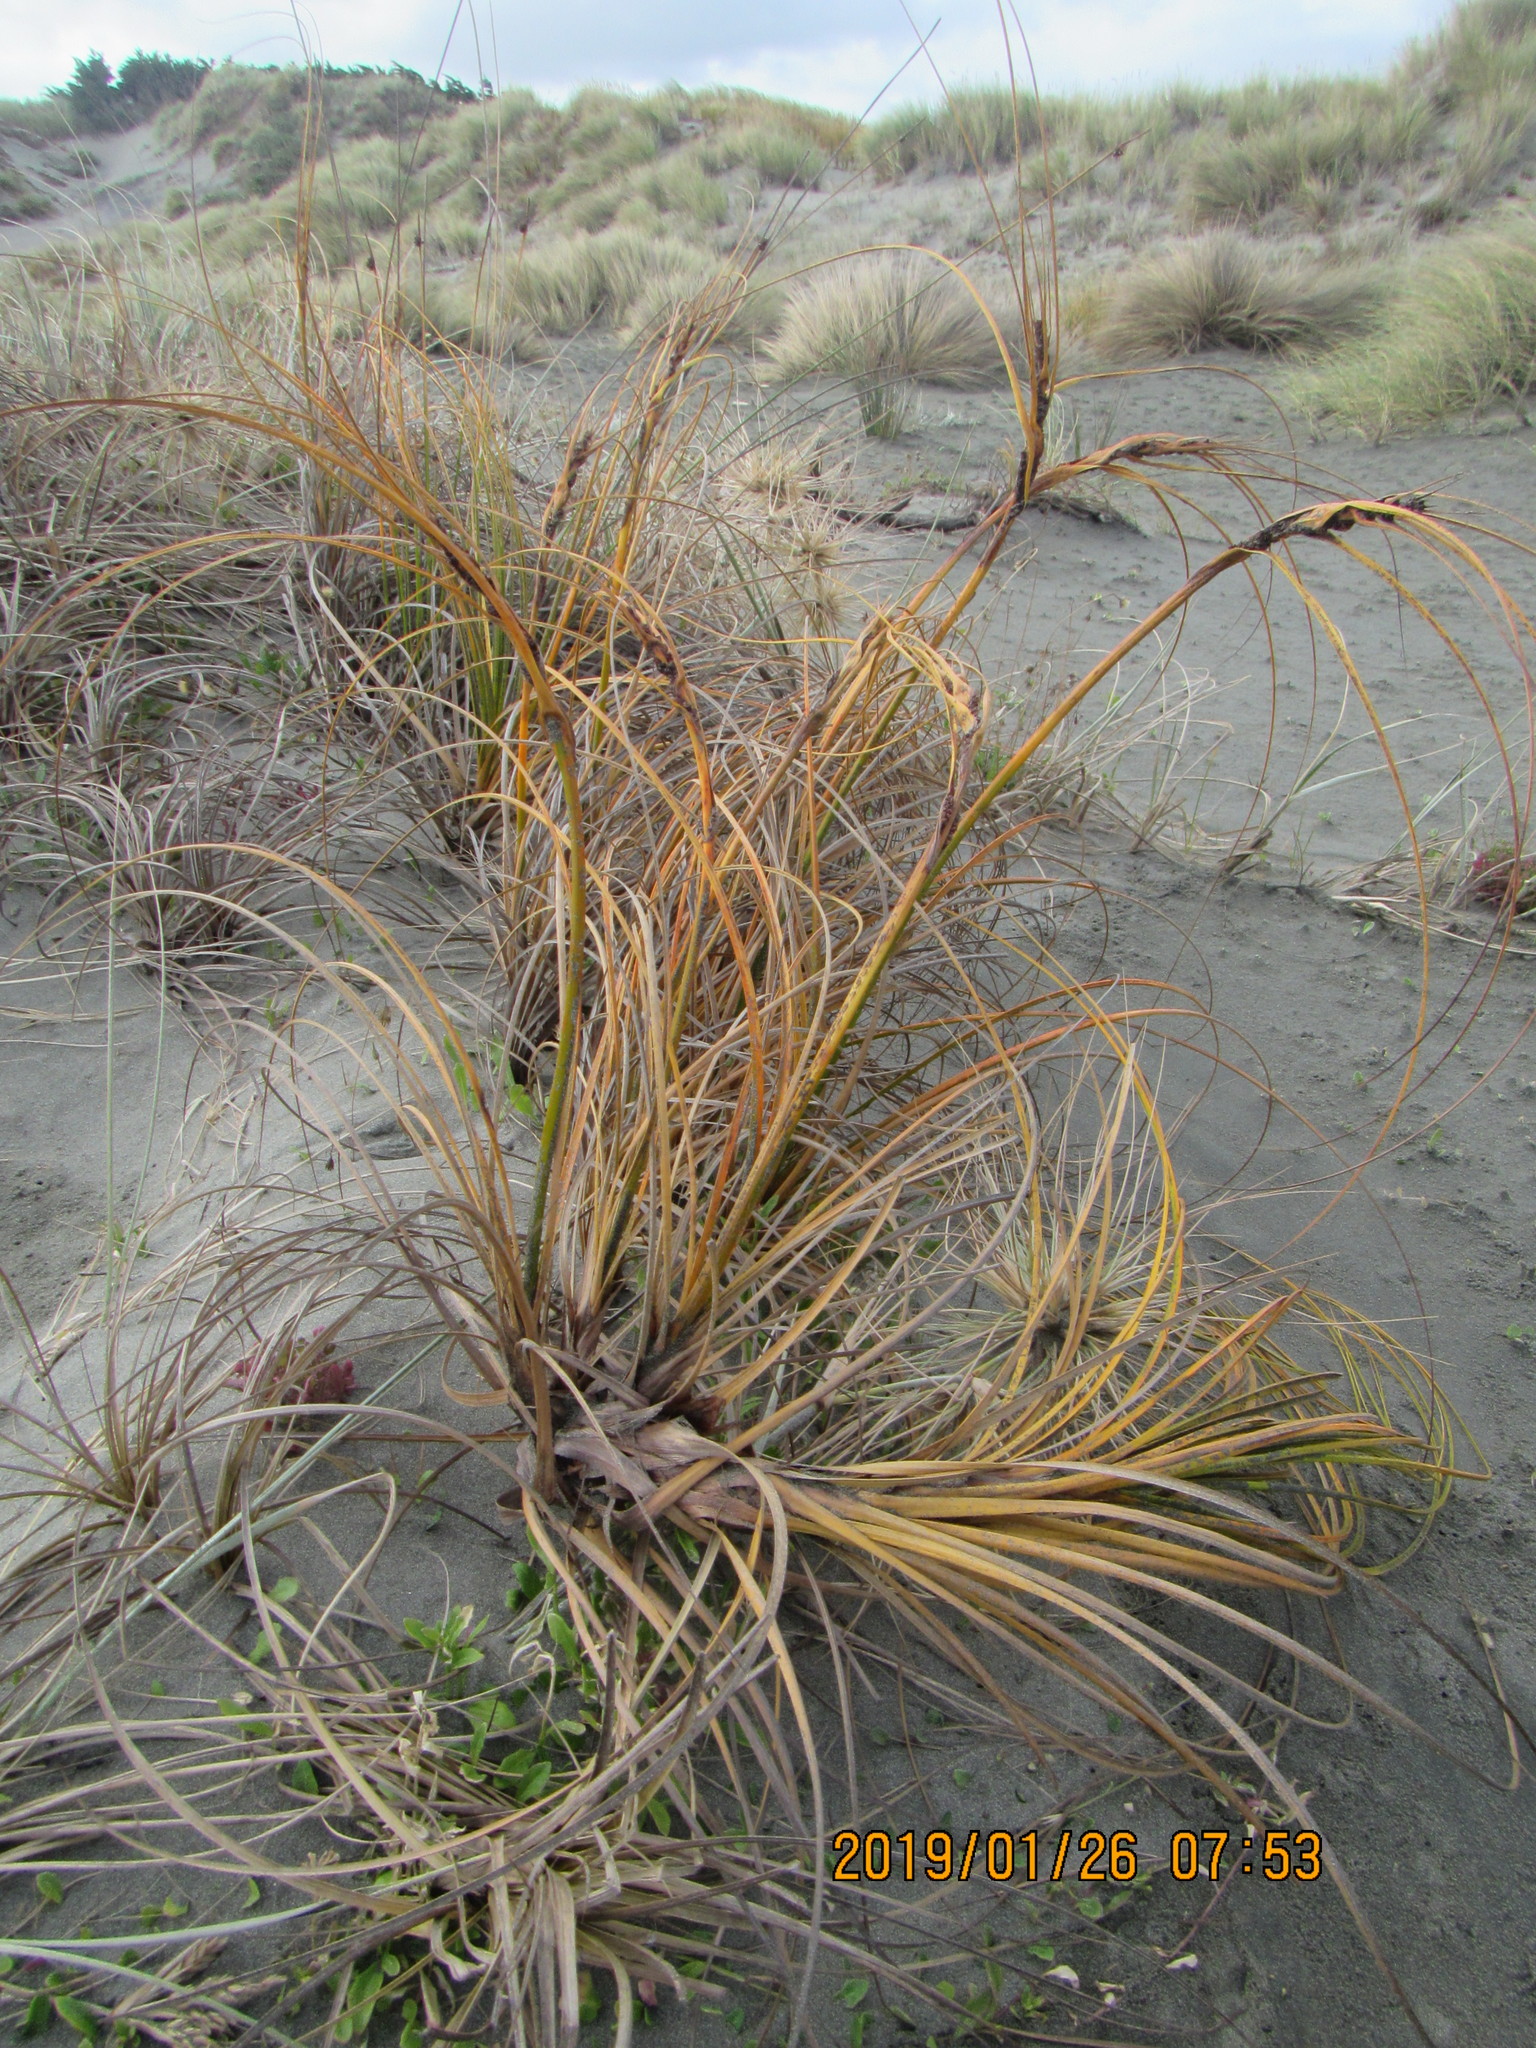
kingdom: Plantae
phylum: Tracheophyta
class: Liliopsida
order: Poales
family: Cyperaceae
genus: Ficinia
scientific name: Ficinia spiralis
